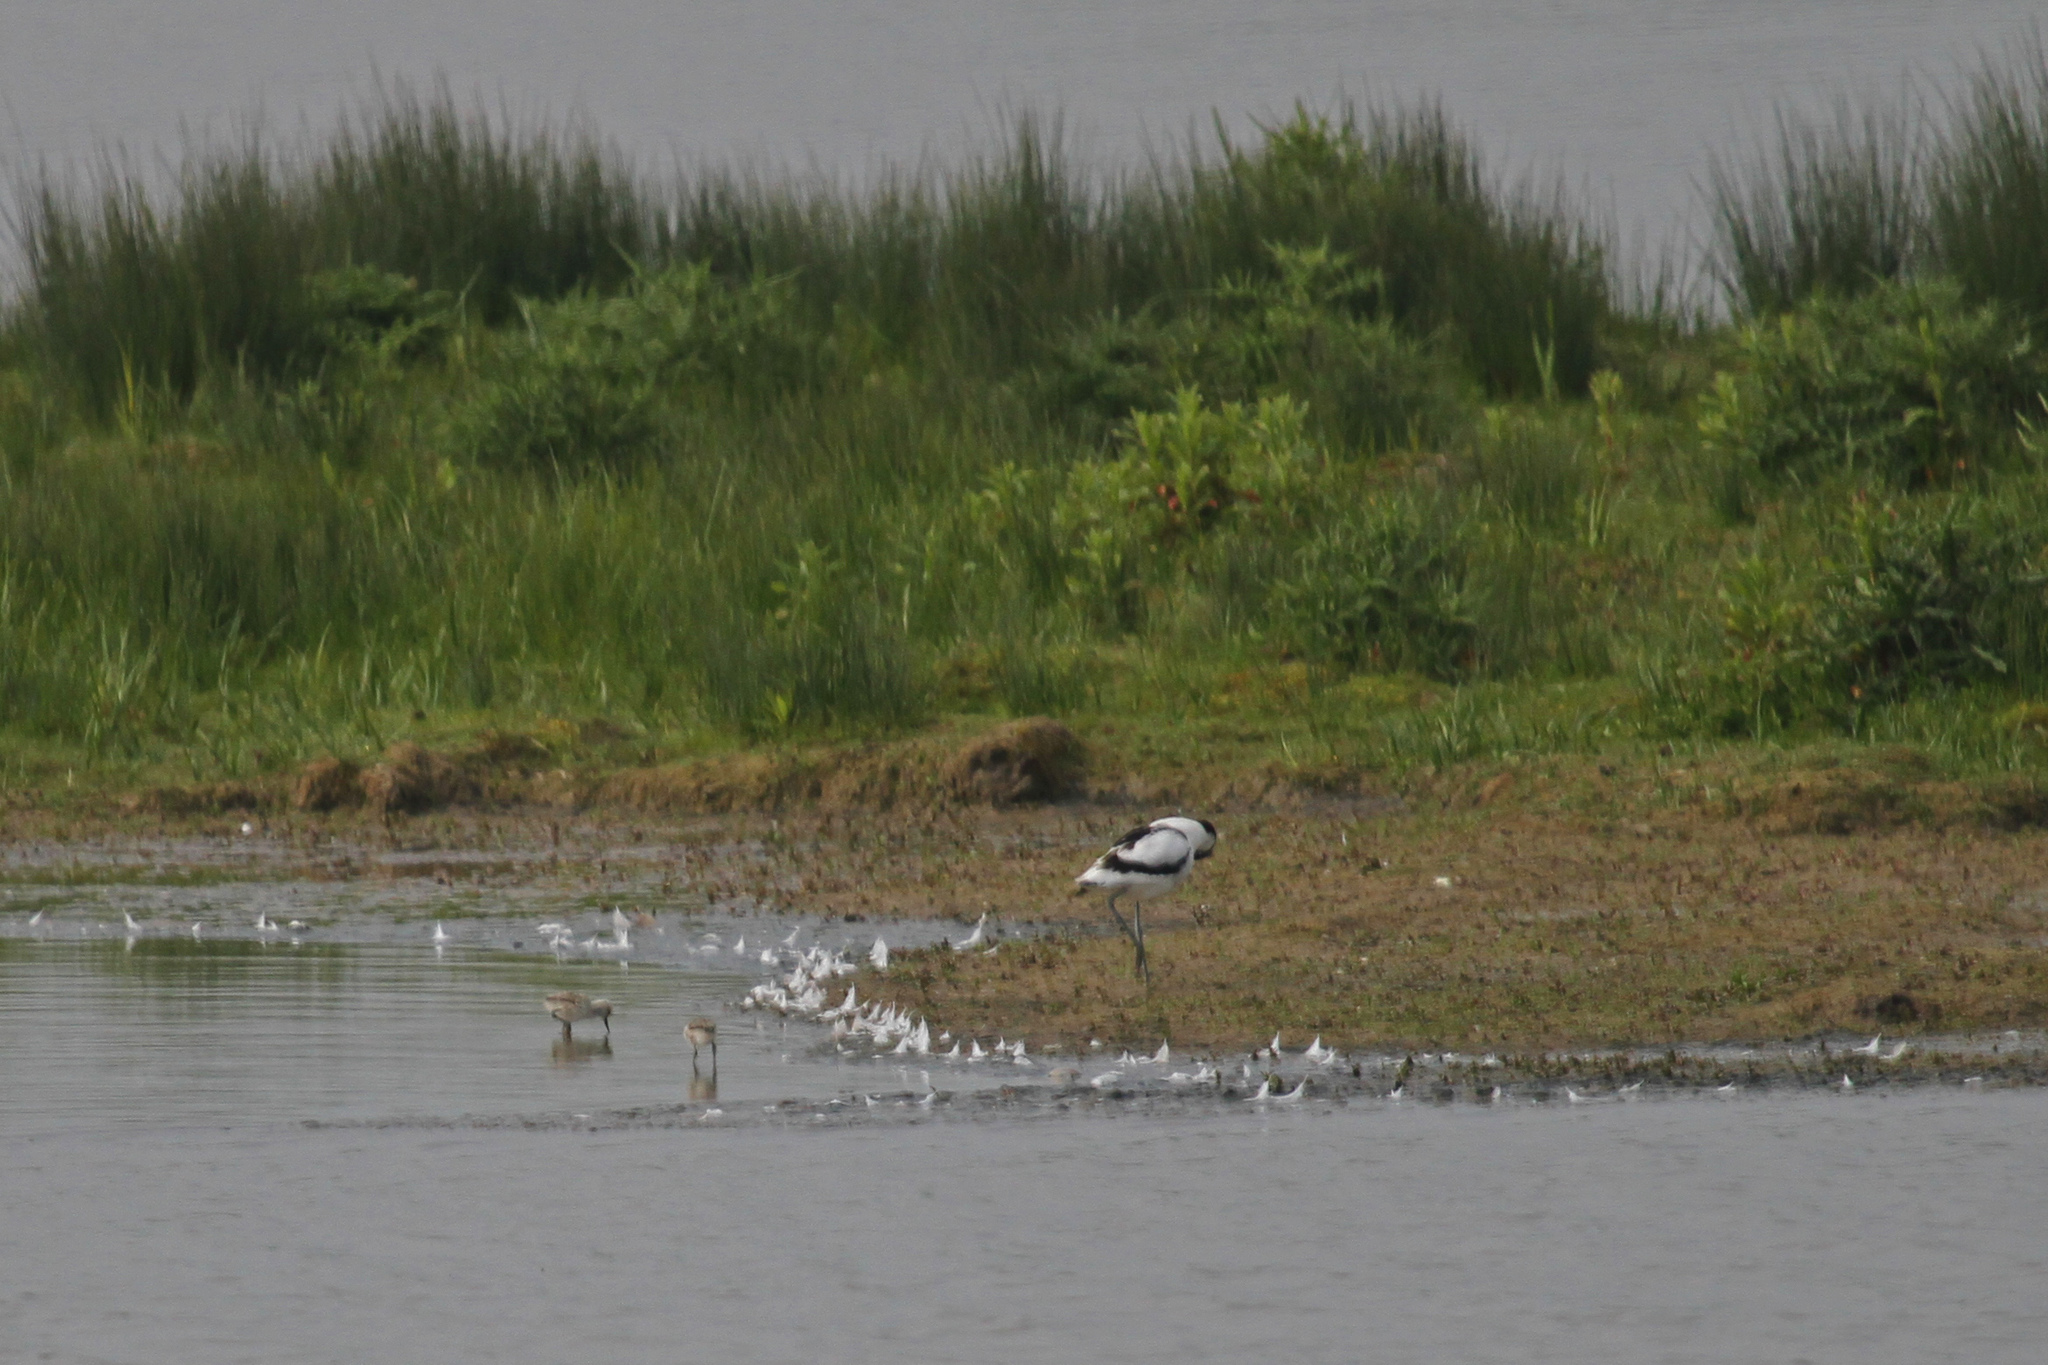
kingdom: Animalia
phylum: Chordata
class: Aves
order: Charadriiformes
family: Recurvirostridae
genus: Recurvirostra
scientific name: Recurvirostra avosetta
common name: Pied avocet
